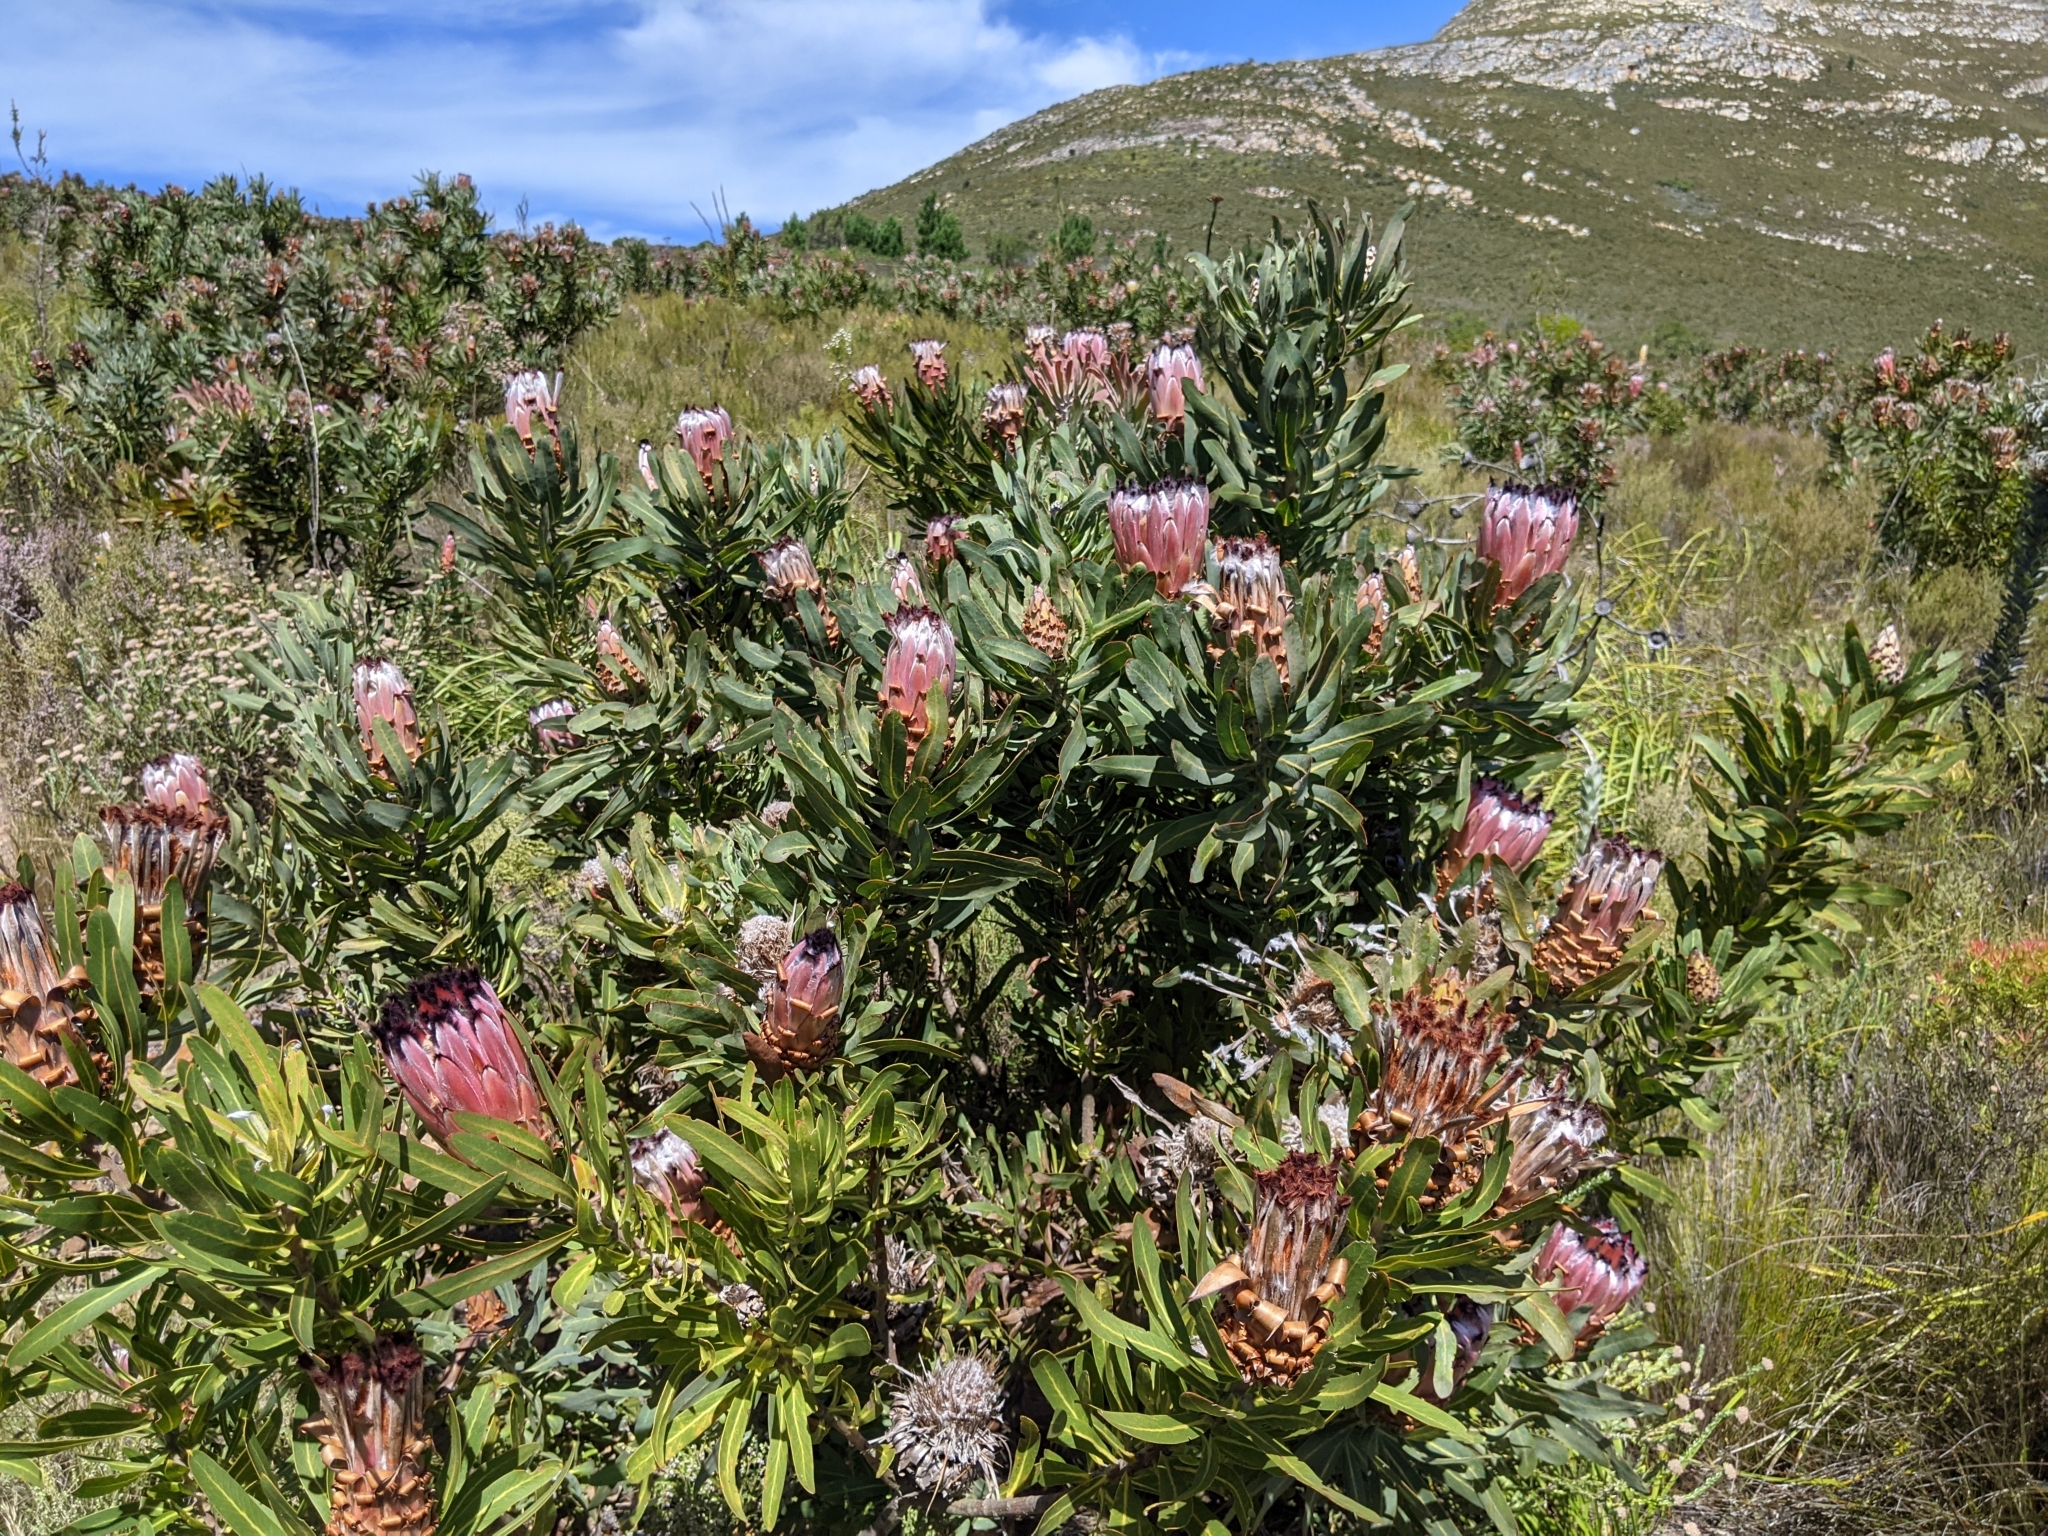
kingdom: Plantae
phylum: Tracheophyta
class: Magnoliopsida
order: Proteales
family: Proteaceae
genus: Protea
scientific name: Protea neriifolia
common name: Blue sugarbush
